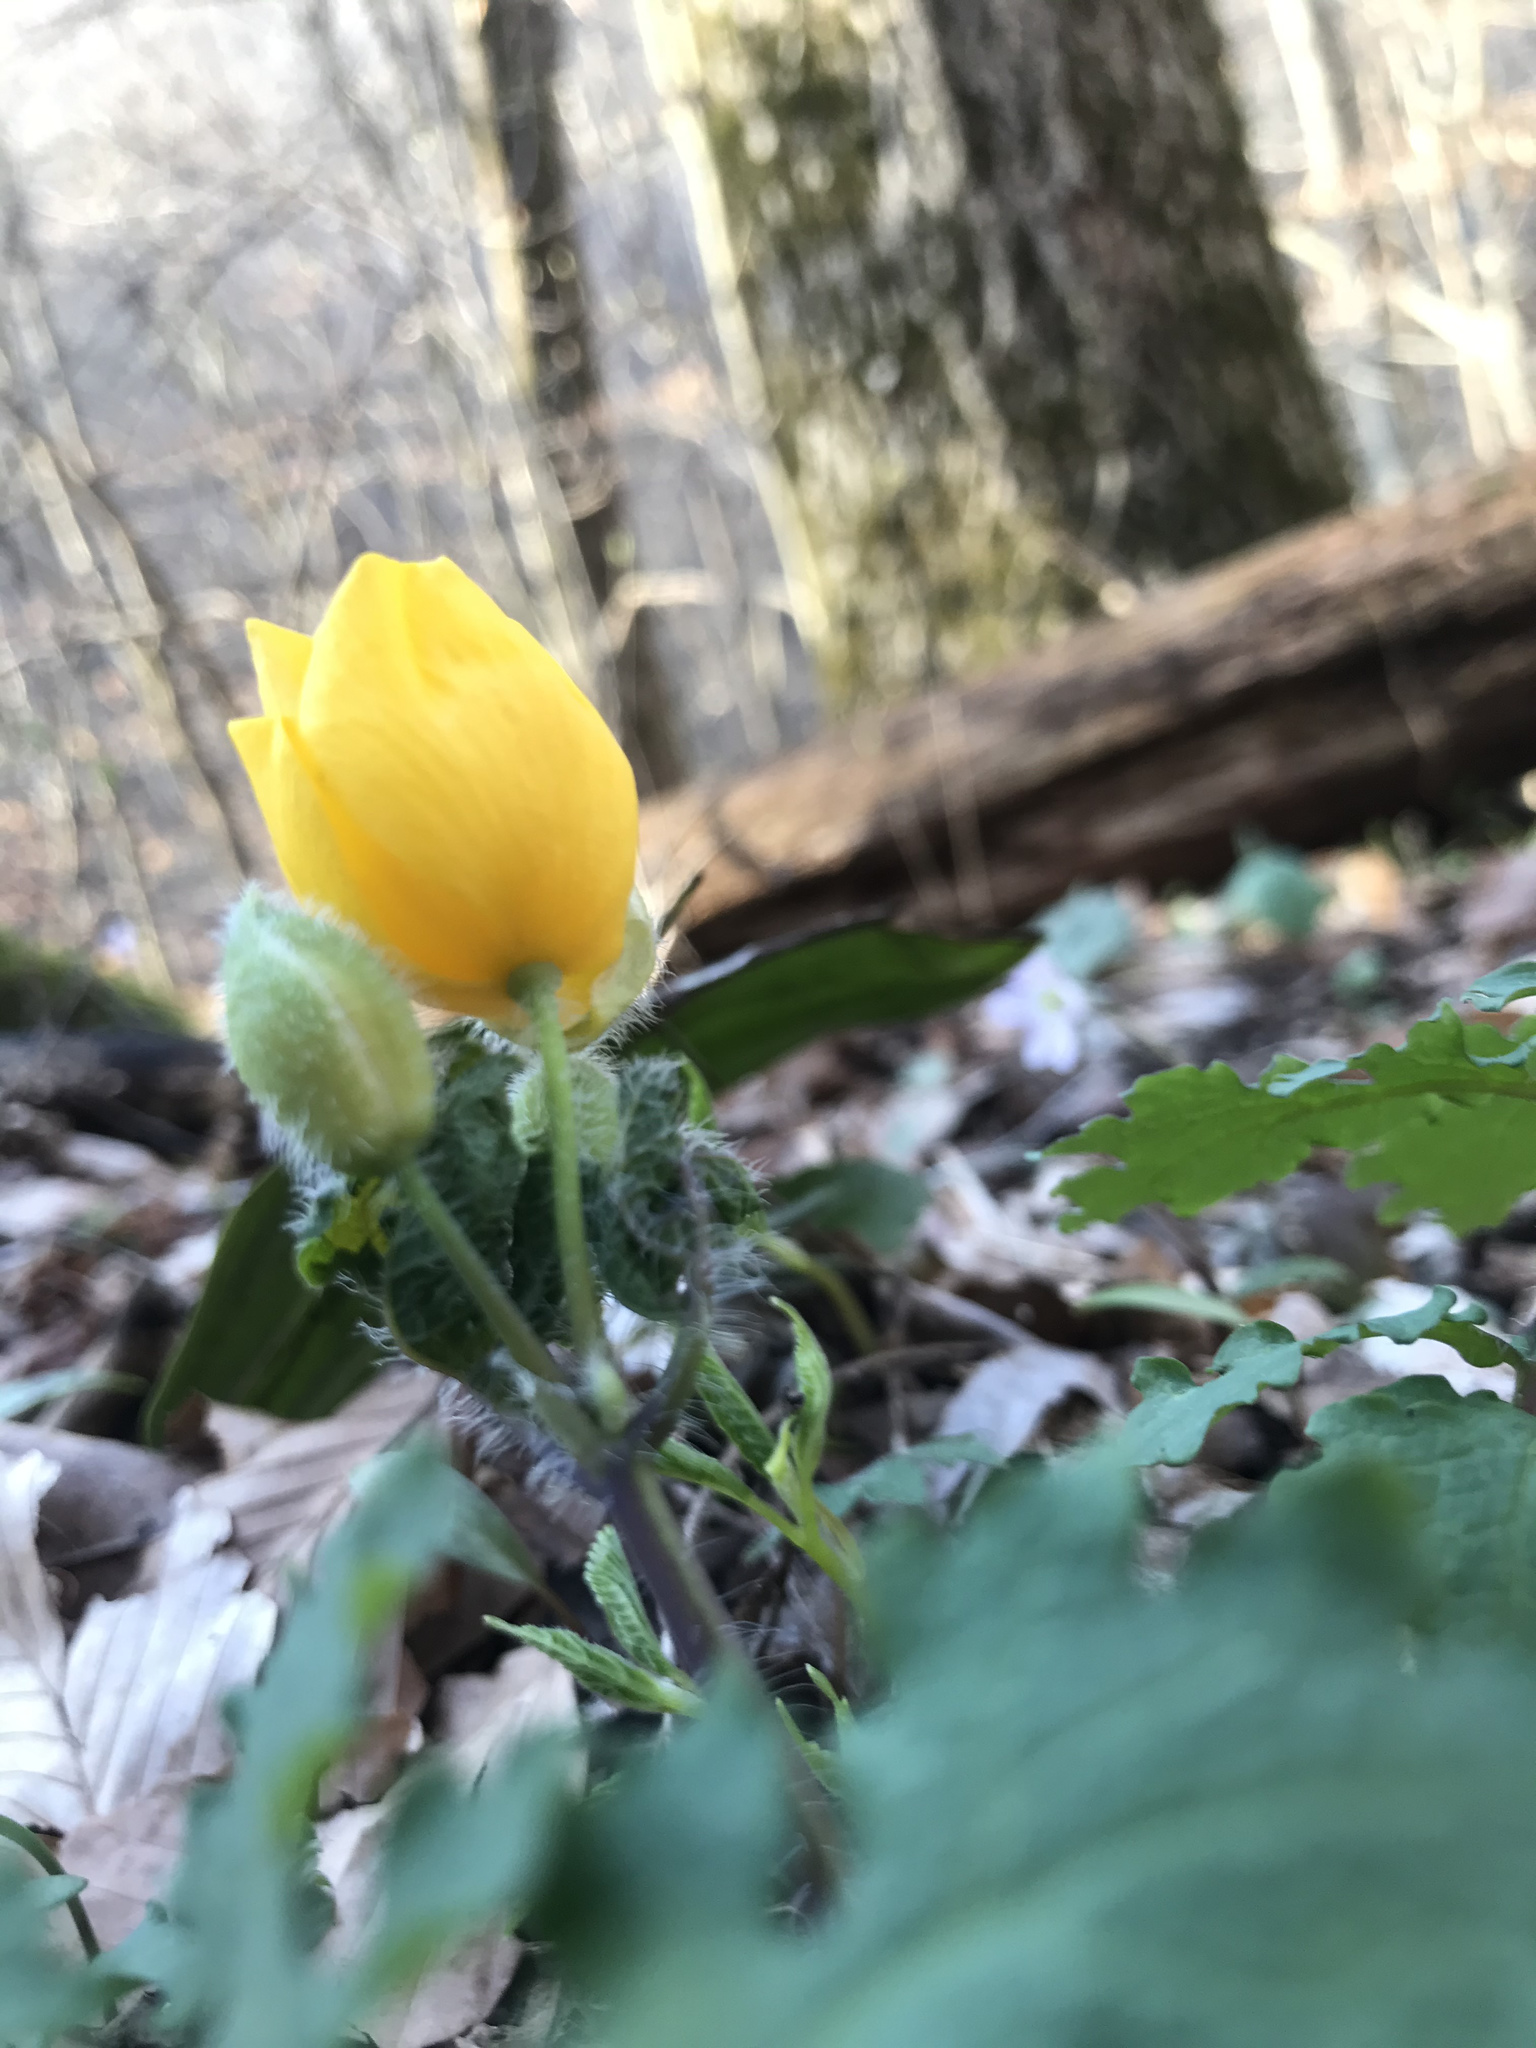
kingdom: Plantae
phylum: Tracheophyta
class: Magnoliopsida
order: Ranunculales
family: Papaveraceae
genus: Stylophorum
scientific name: Stylophorum diphyllum
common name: Celandine poppy
